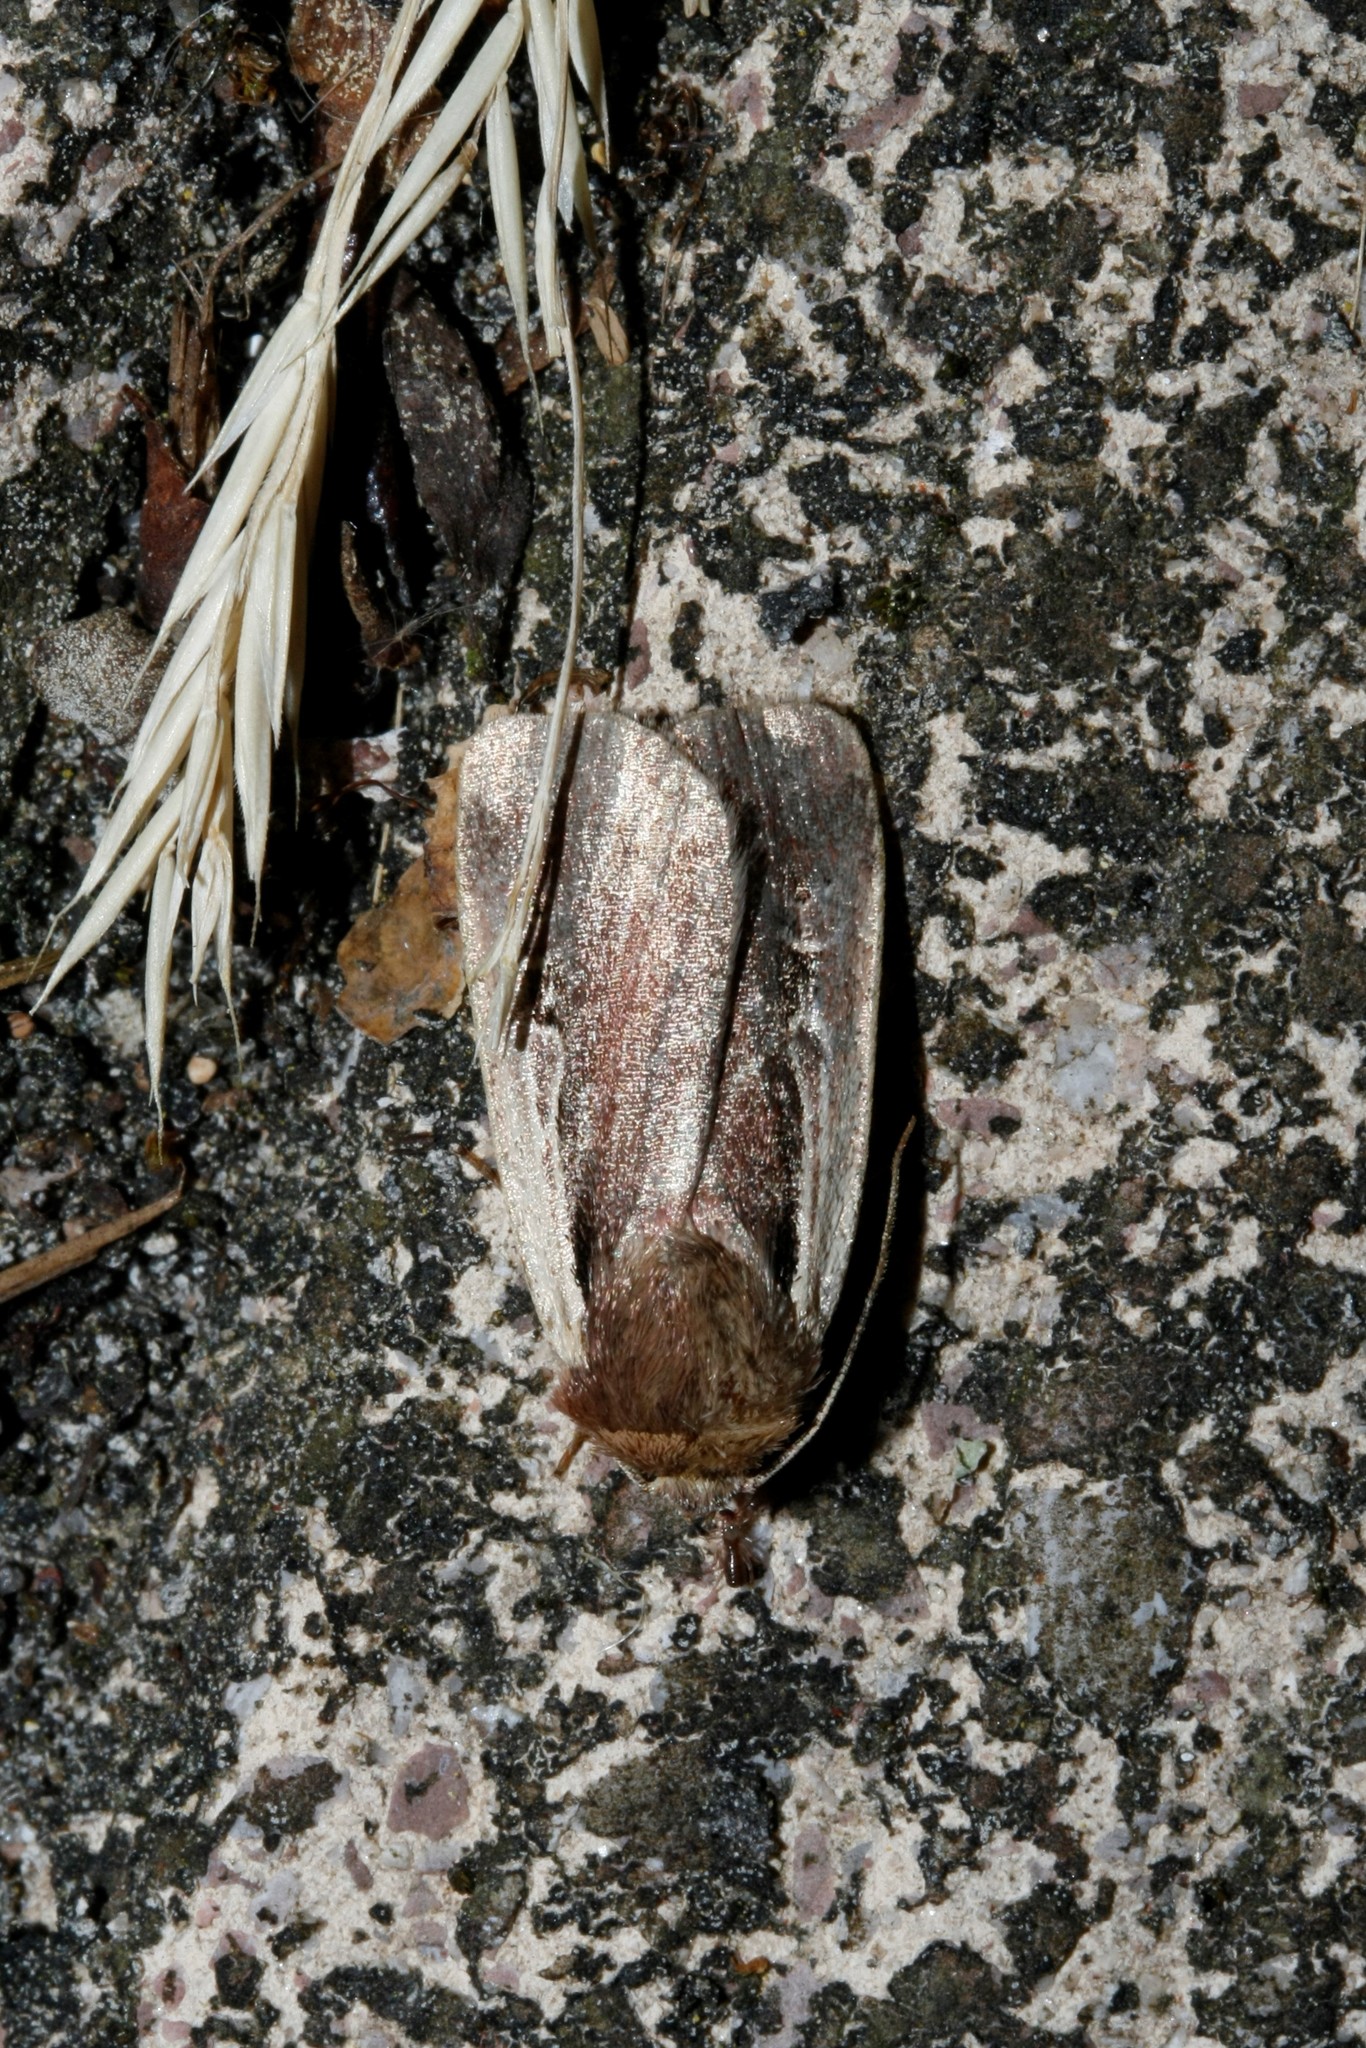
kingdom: Animalia
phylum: Arthropoda
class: Insecta
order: Lepidoptera
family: Noctuidae
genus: Ochropleura
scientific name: Ochropleura plecta
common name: Flame shoulder
